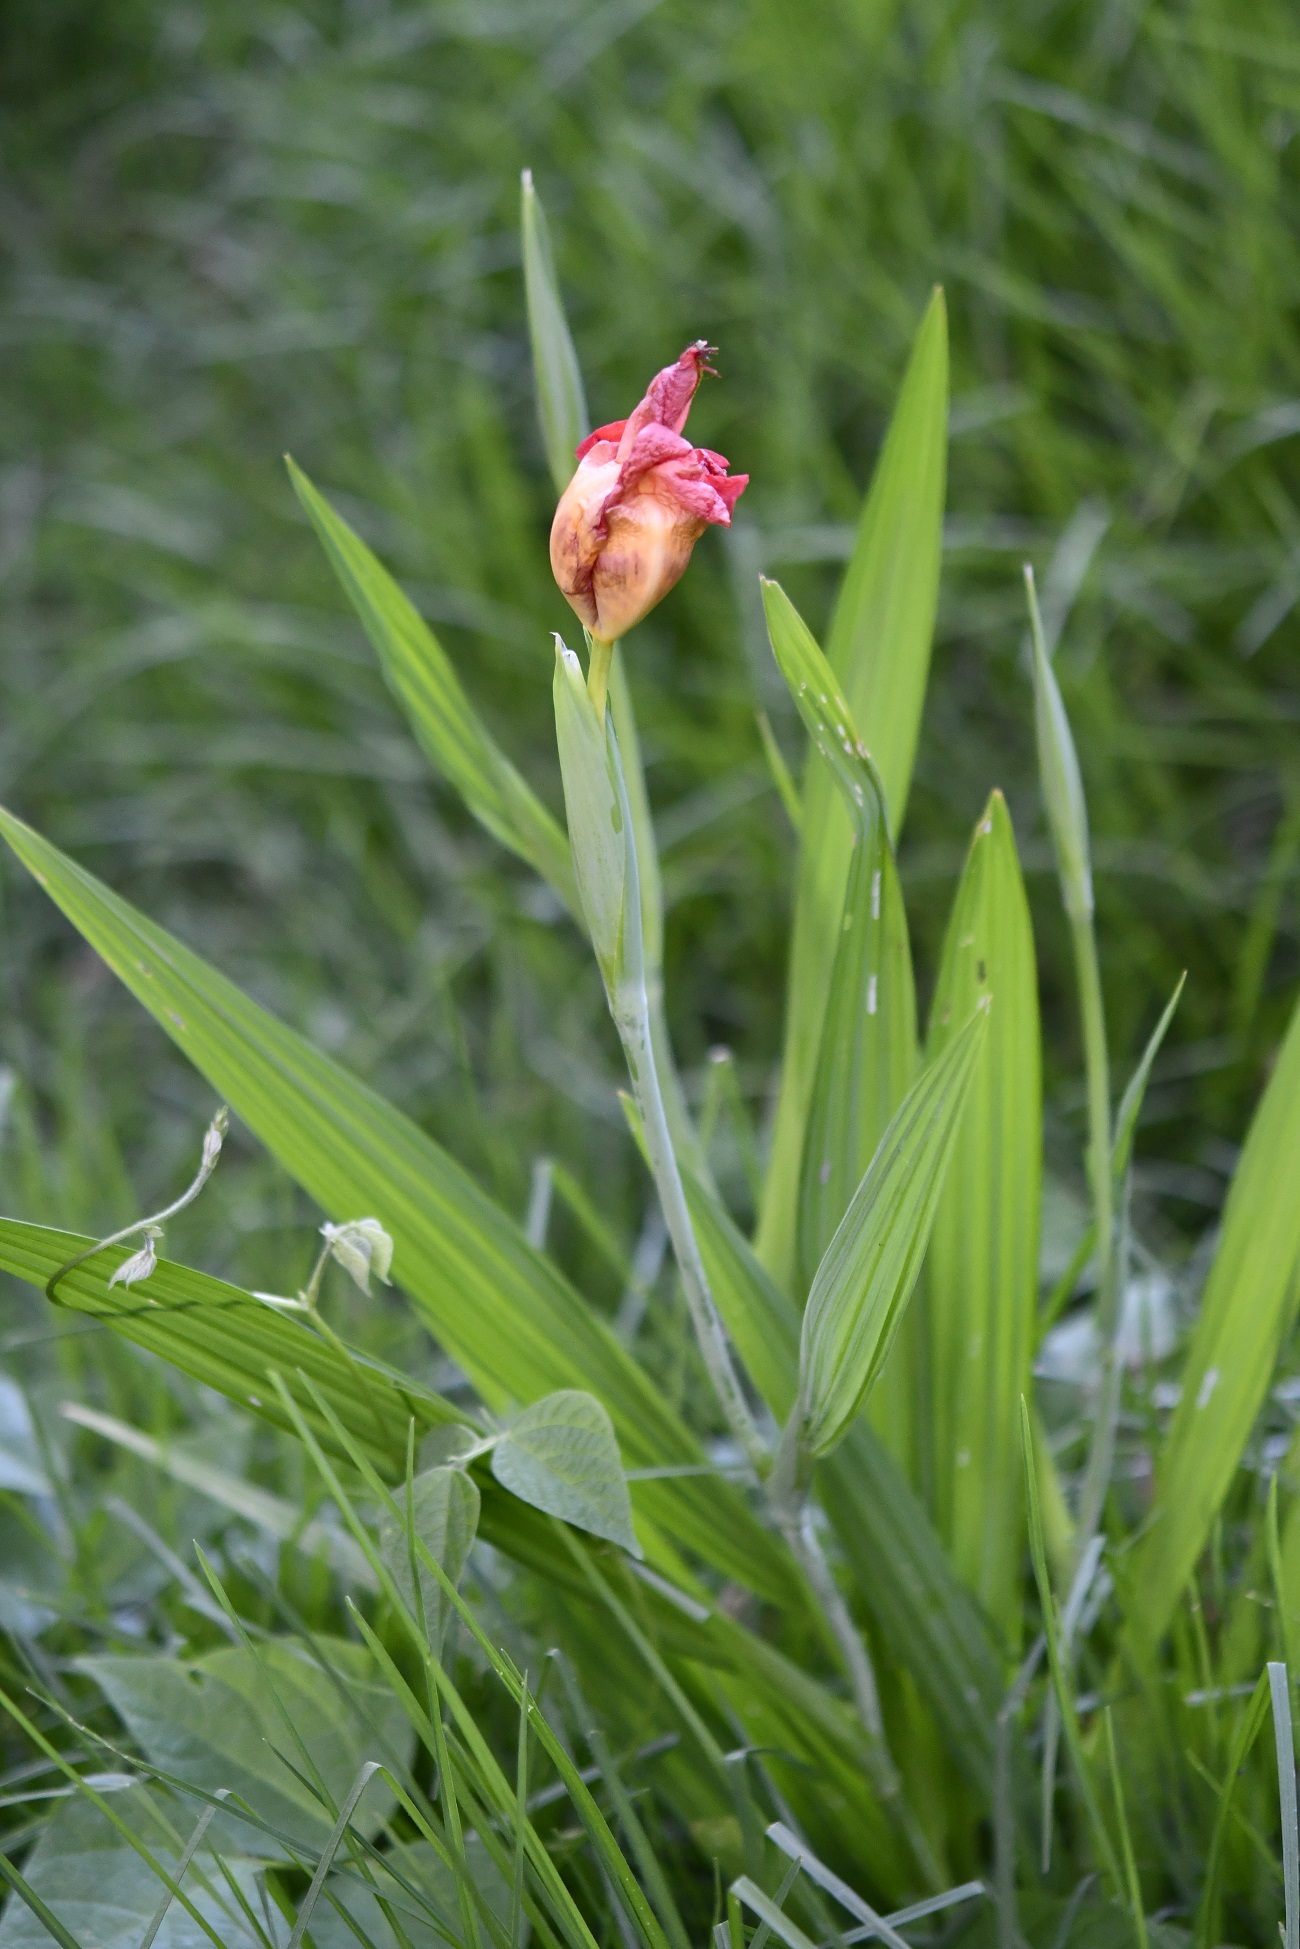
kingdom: Plantae
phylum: Tracheophyta
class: Liliopsida
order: Asparagales
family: Iridaceae
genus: Tigridia
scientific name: Tigridia pavonia
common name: Peacock-flower
